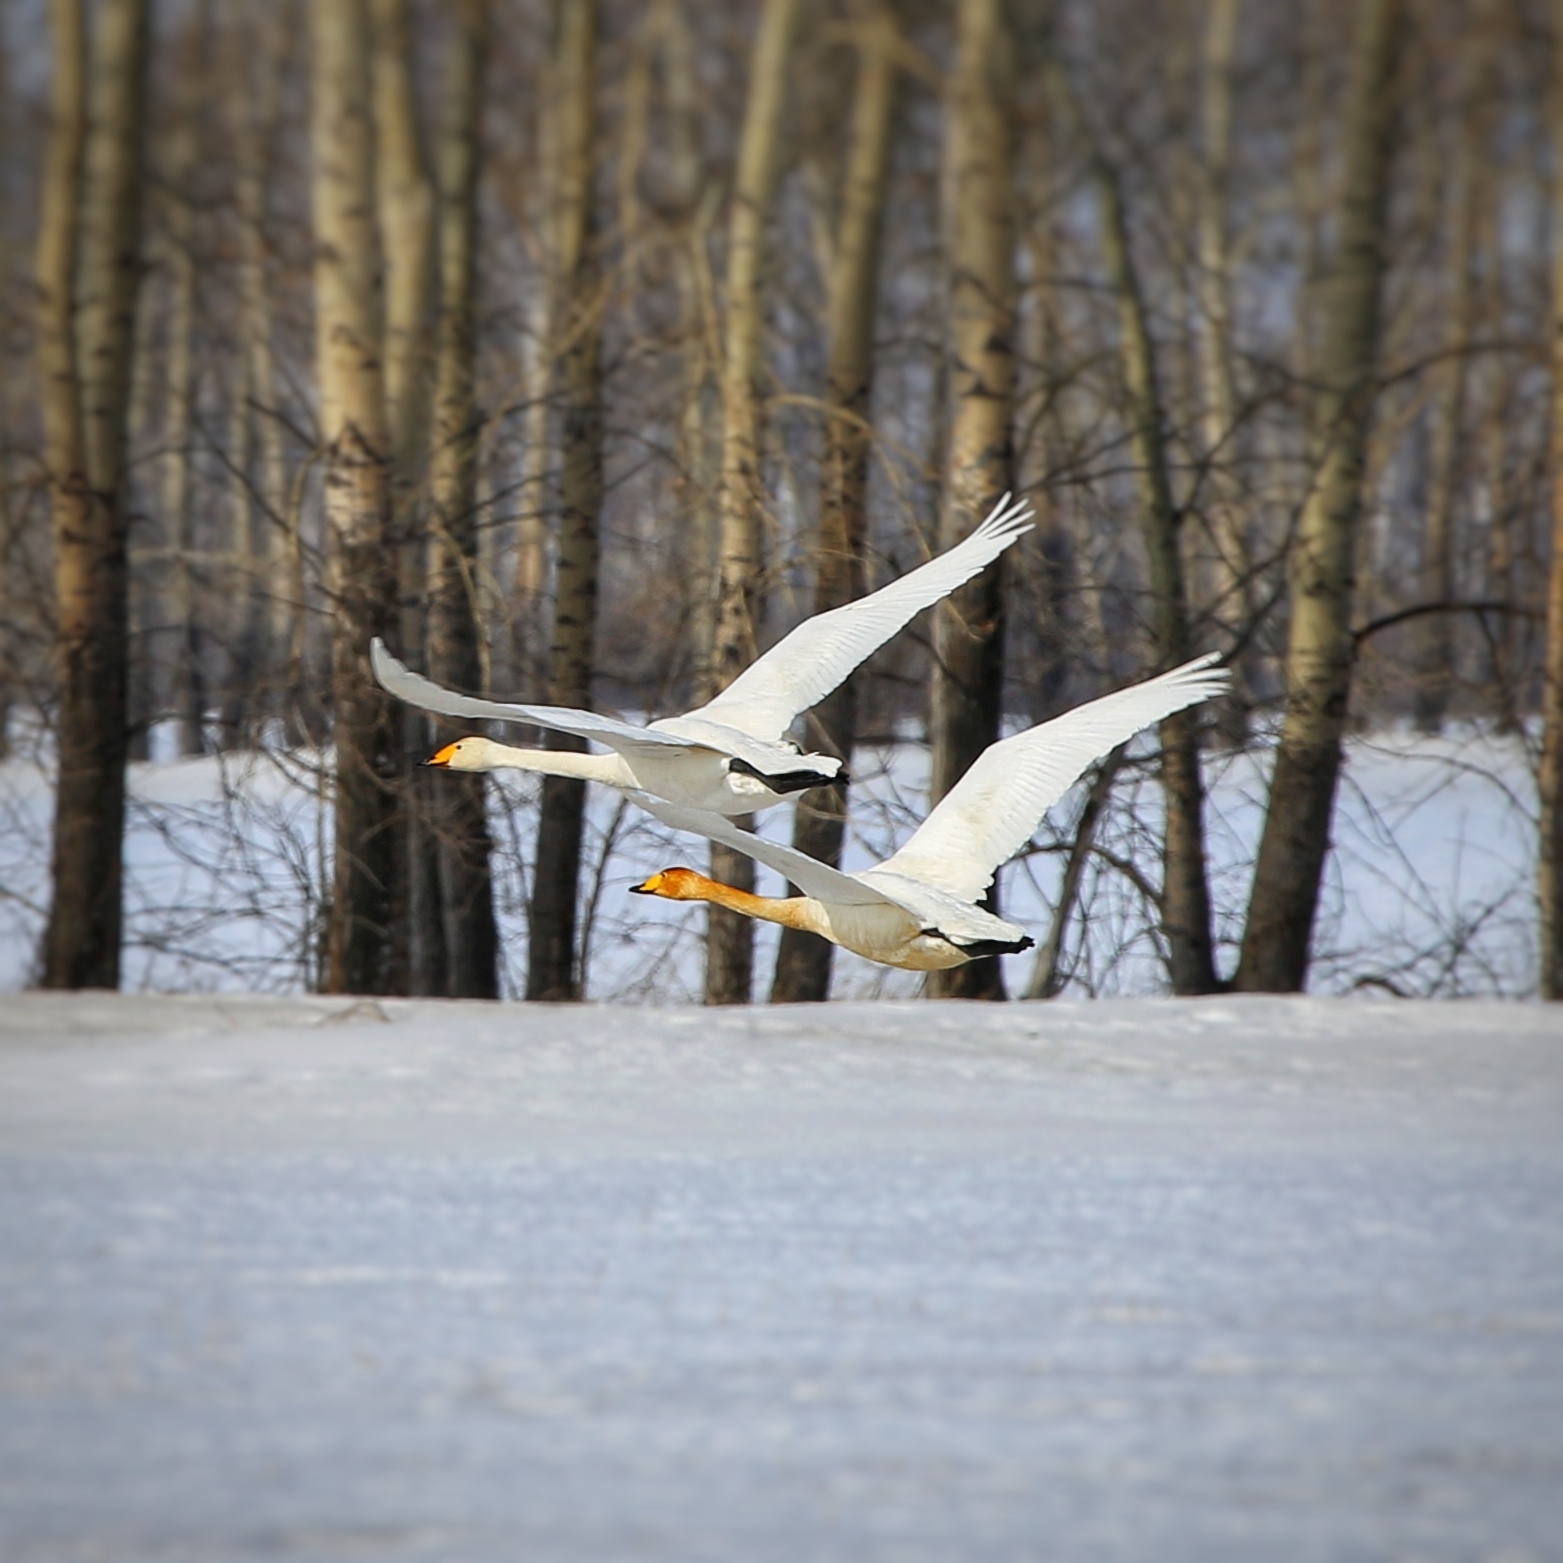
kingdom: Animalia
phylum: Chordata
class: Aves
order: Anseriformes
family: Anatidae
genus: Cygnus
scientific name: Cygnus cygnus
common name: Whooper swan
